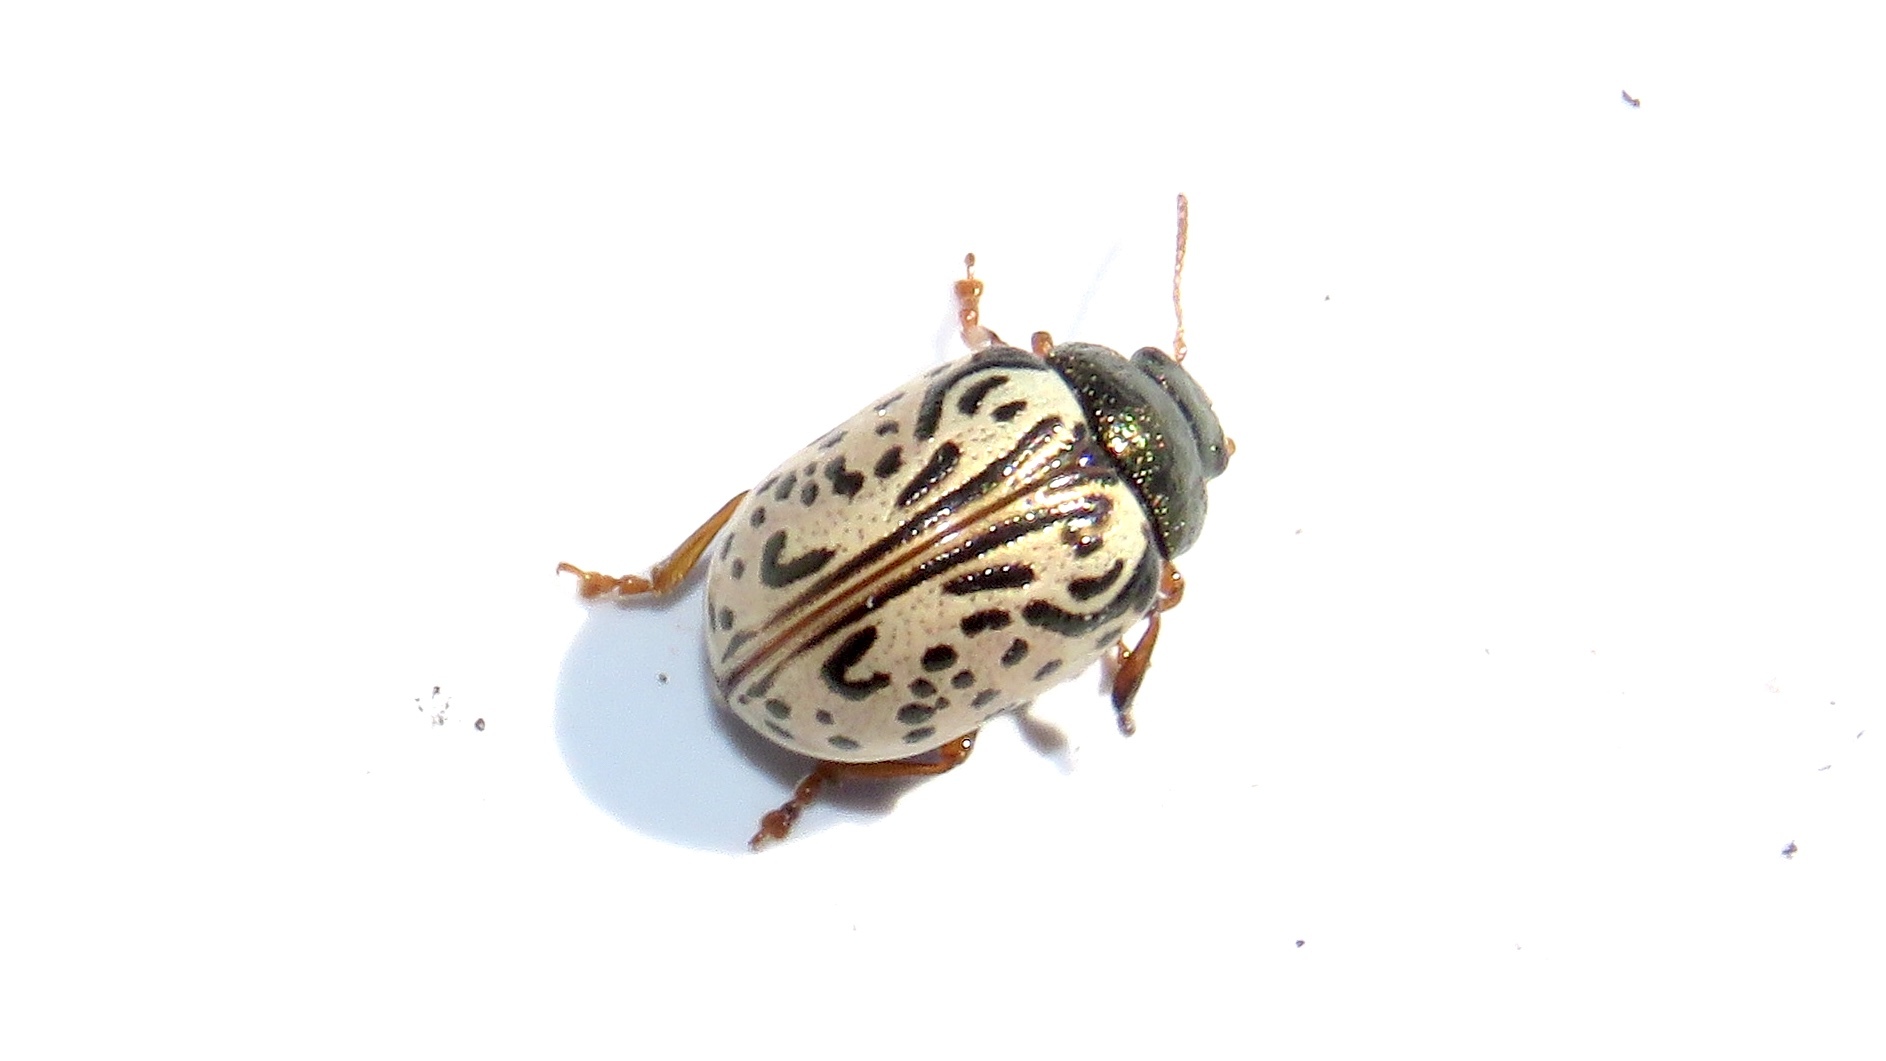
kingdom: Animalia
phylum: Arthropoda
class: Insecta
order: Coleoptera
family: Chrysomelidae
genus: Calligrapha
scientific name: Calligrapha philadelphica
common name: Dogwood leaf beetle
